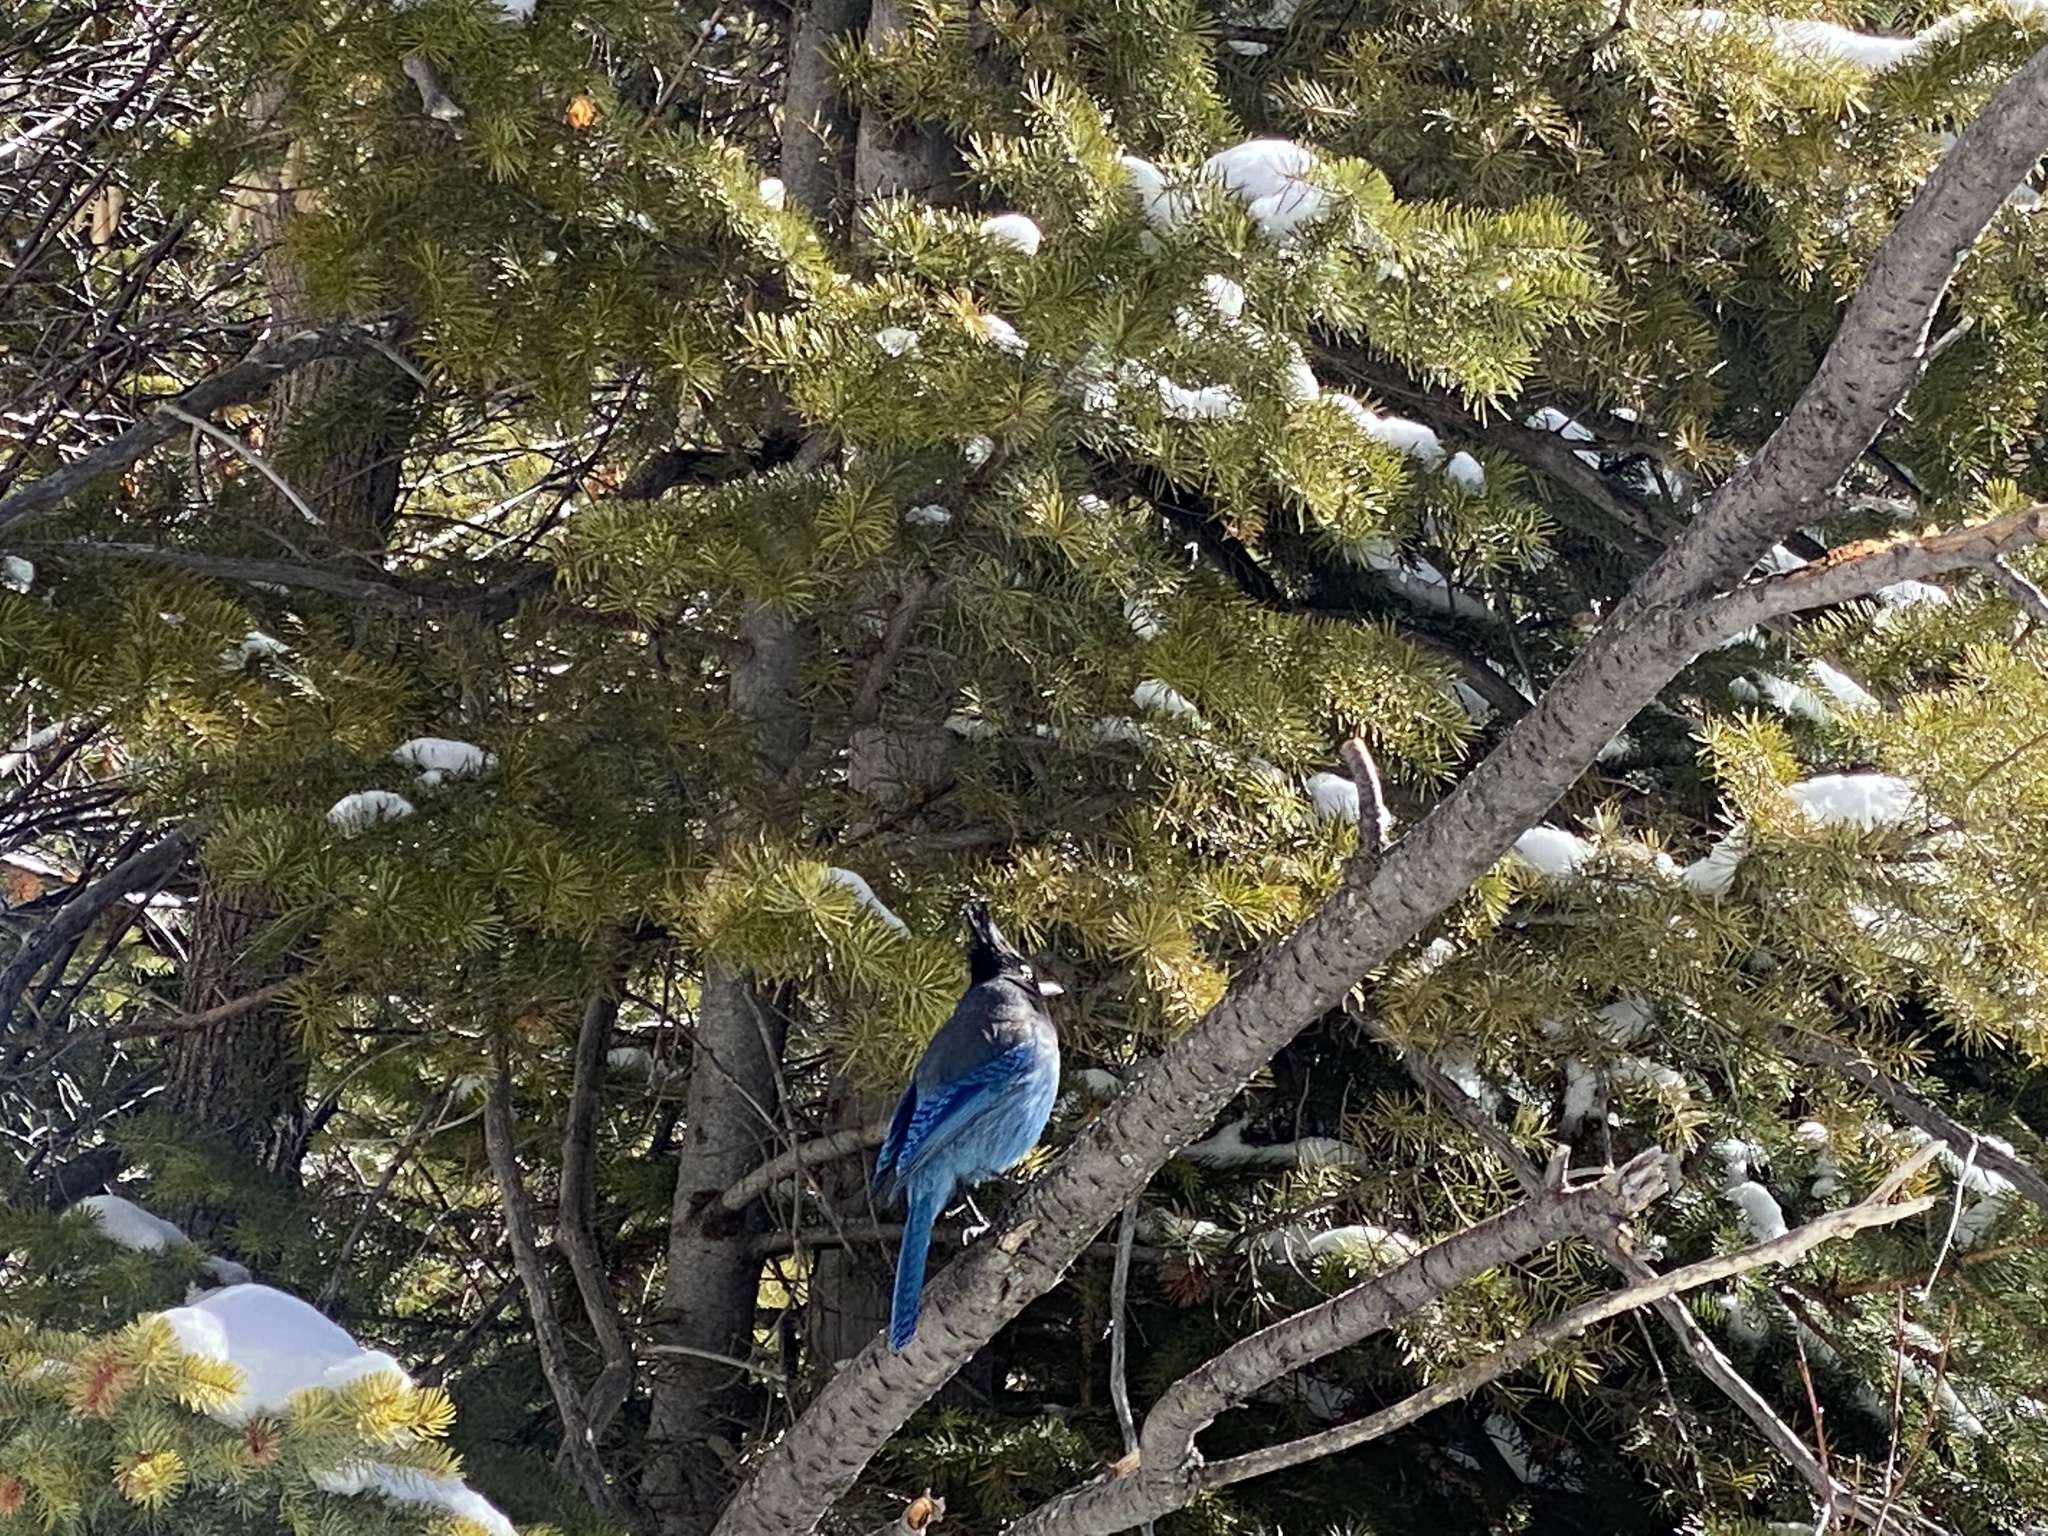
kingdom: Animalia
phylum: Chordata
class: Aves
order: Passeriformes
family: Corvidae
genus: Cyanocitta
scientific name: Cyanocitta stelleri
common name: Steller's jay
